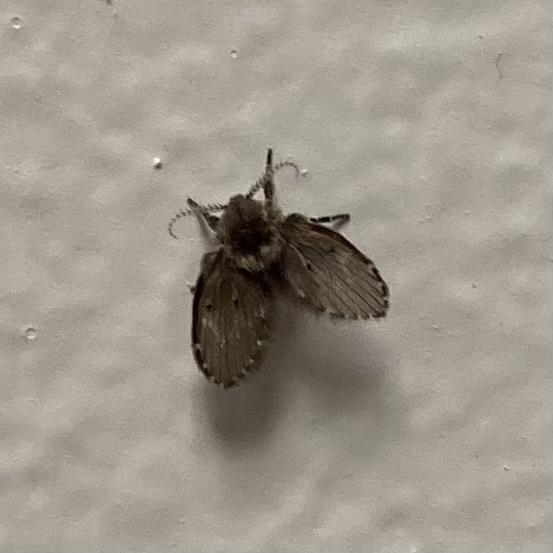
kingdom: Animalia
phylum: Arthropoda
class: Insecta
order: Diptera
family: Psychodidae
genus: Clogmia
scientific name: Clogmia albipunctatus
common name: White-spotted moth fly
